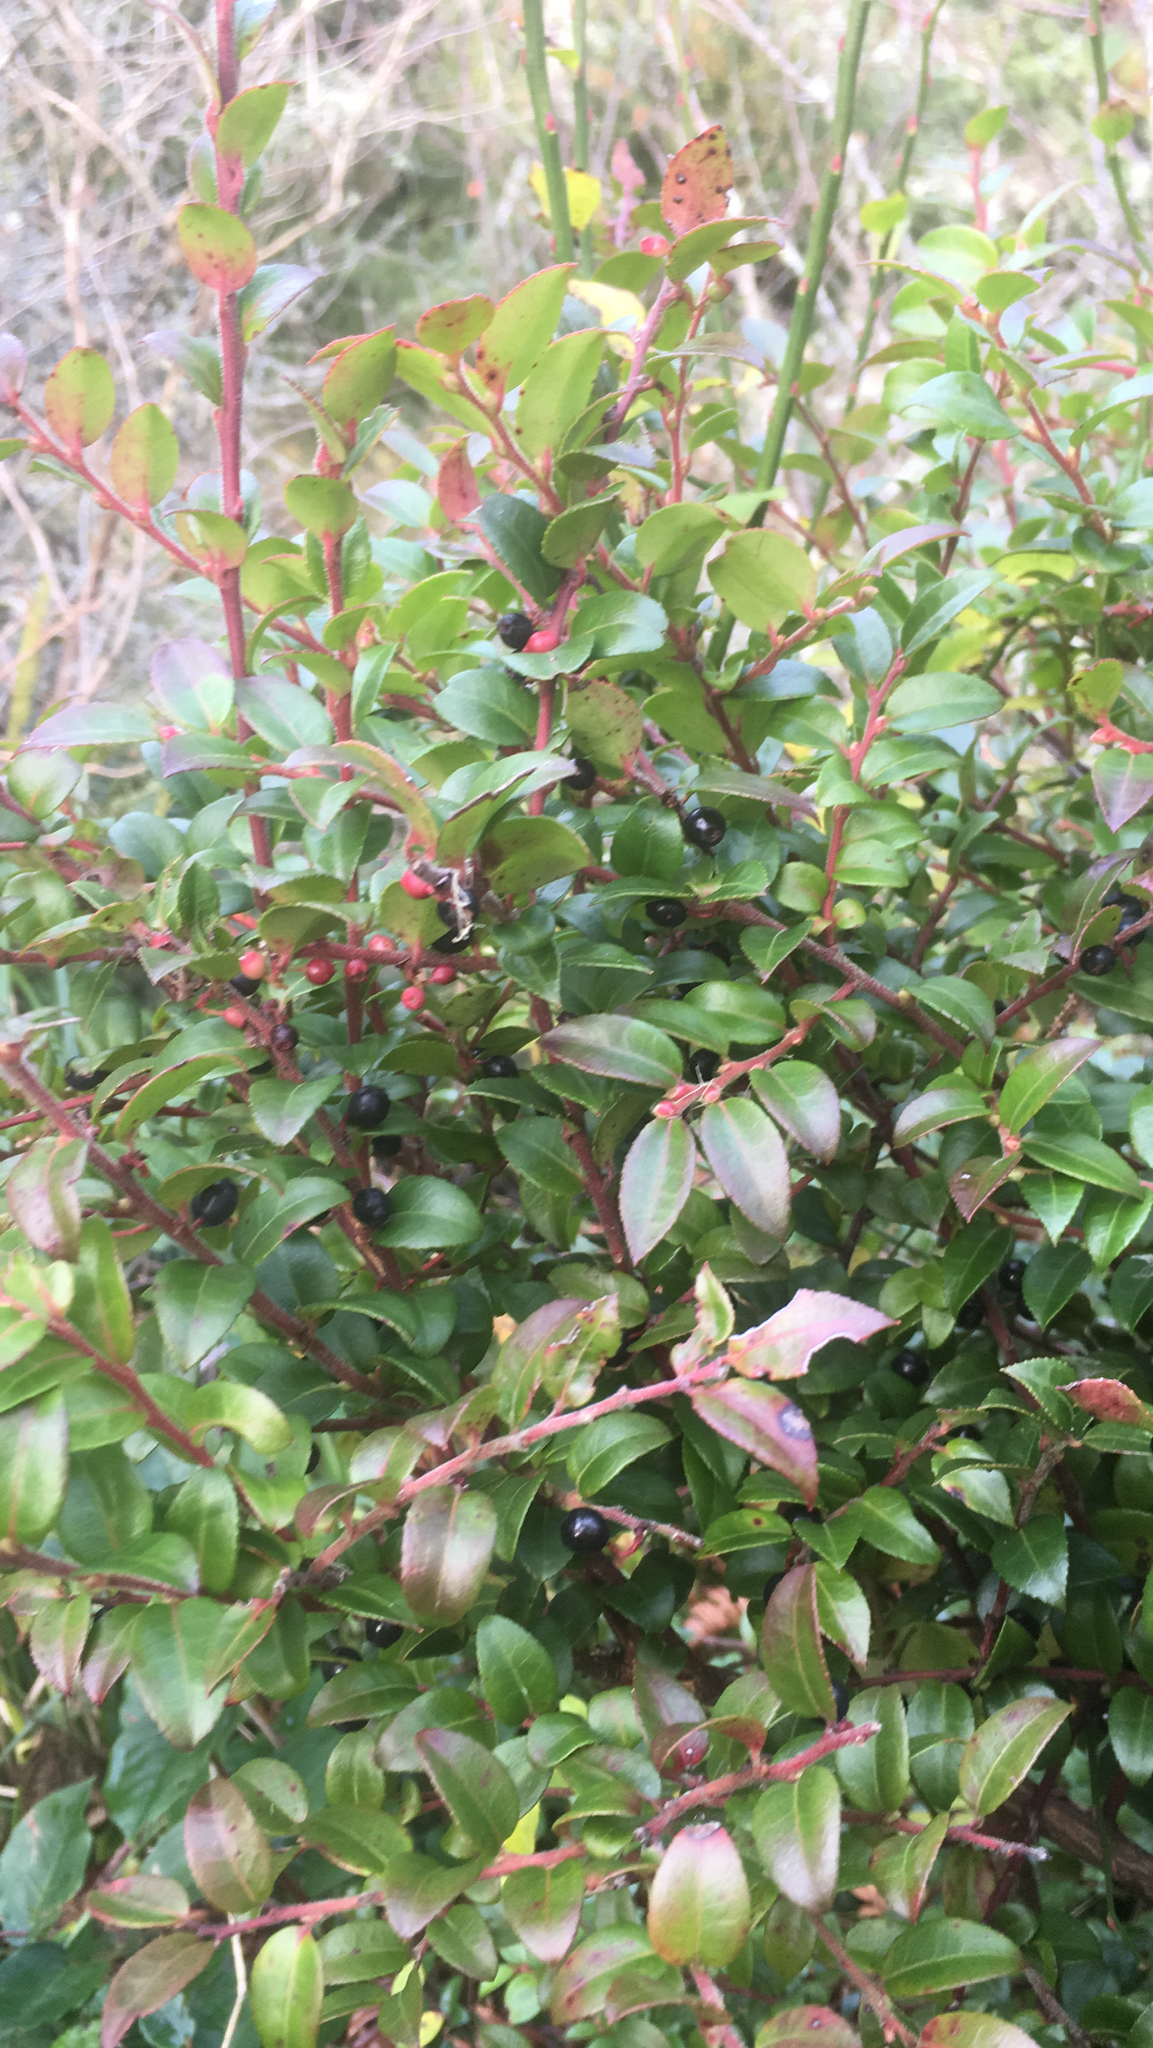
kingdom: Plantae
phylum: Tracheophyta
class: Magnoliopsida
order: Ericales
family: Ericaceae
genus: Vaccinium
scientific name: Vaccinium ovatum
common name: California-huckleberry
